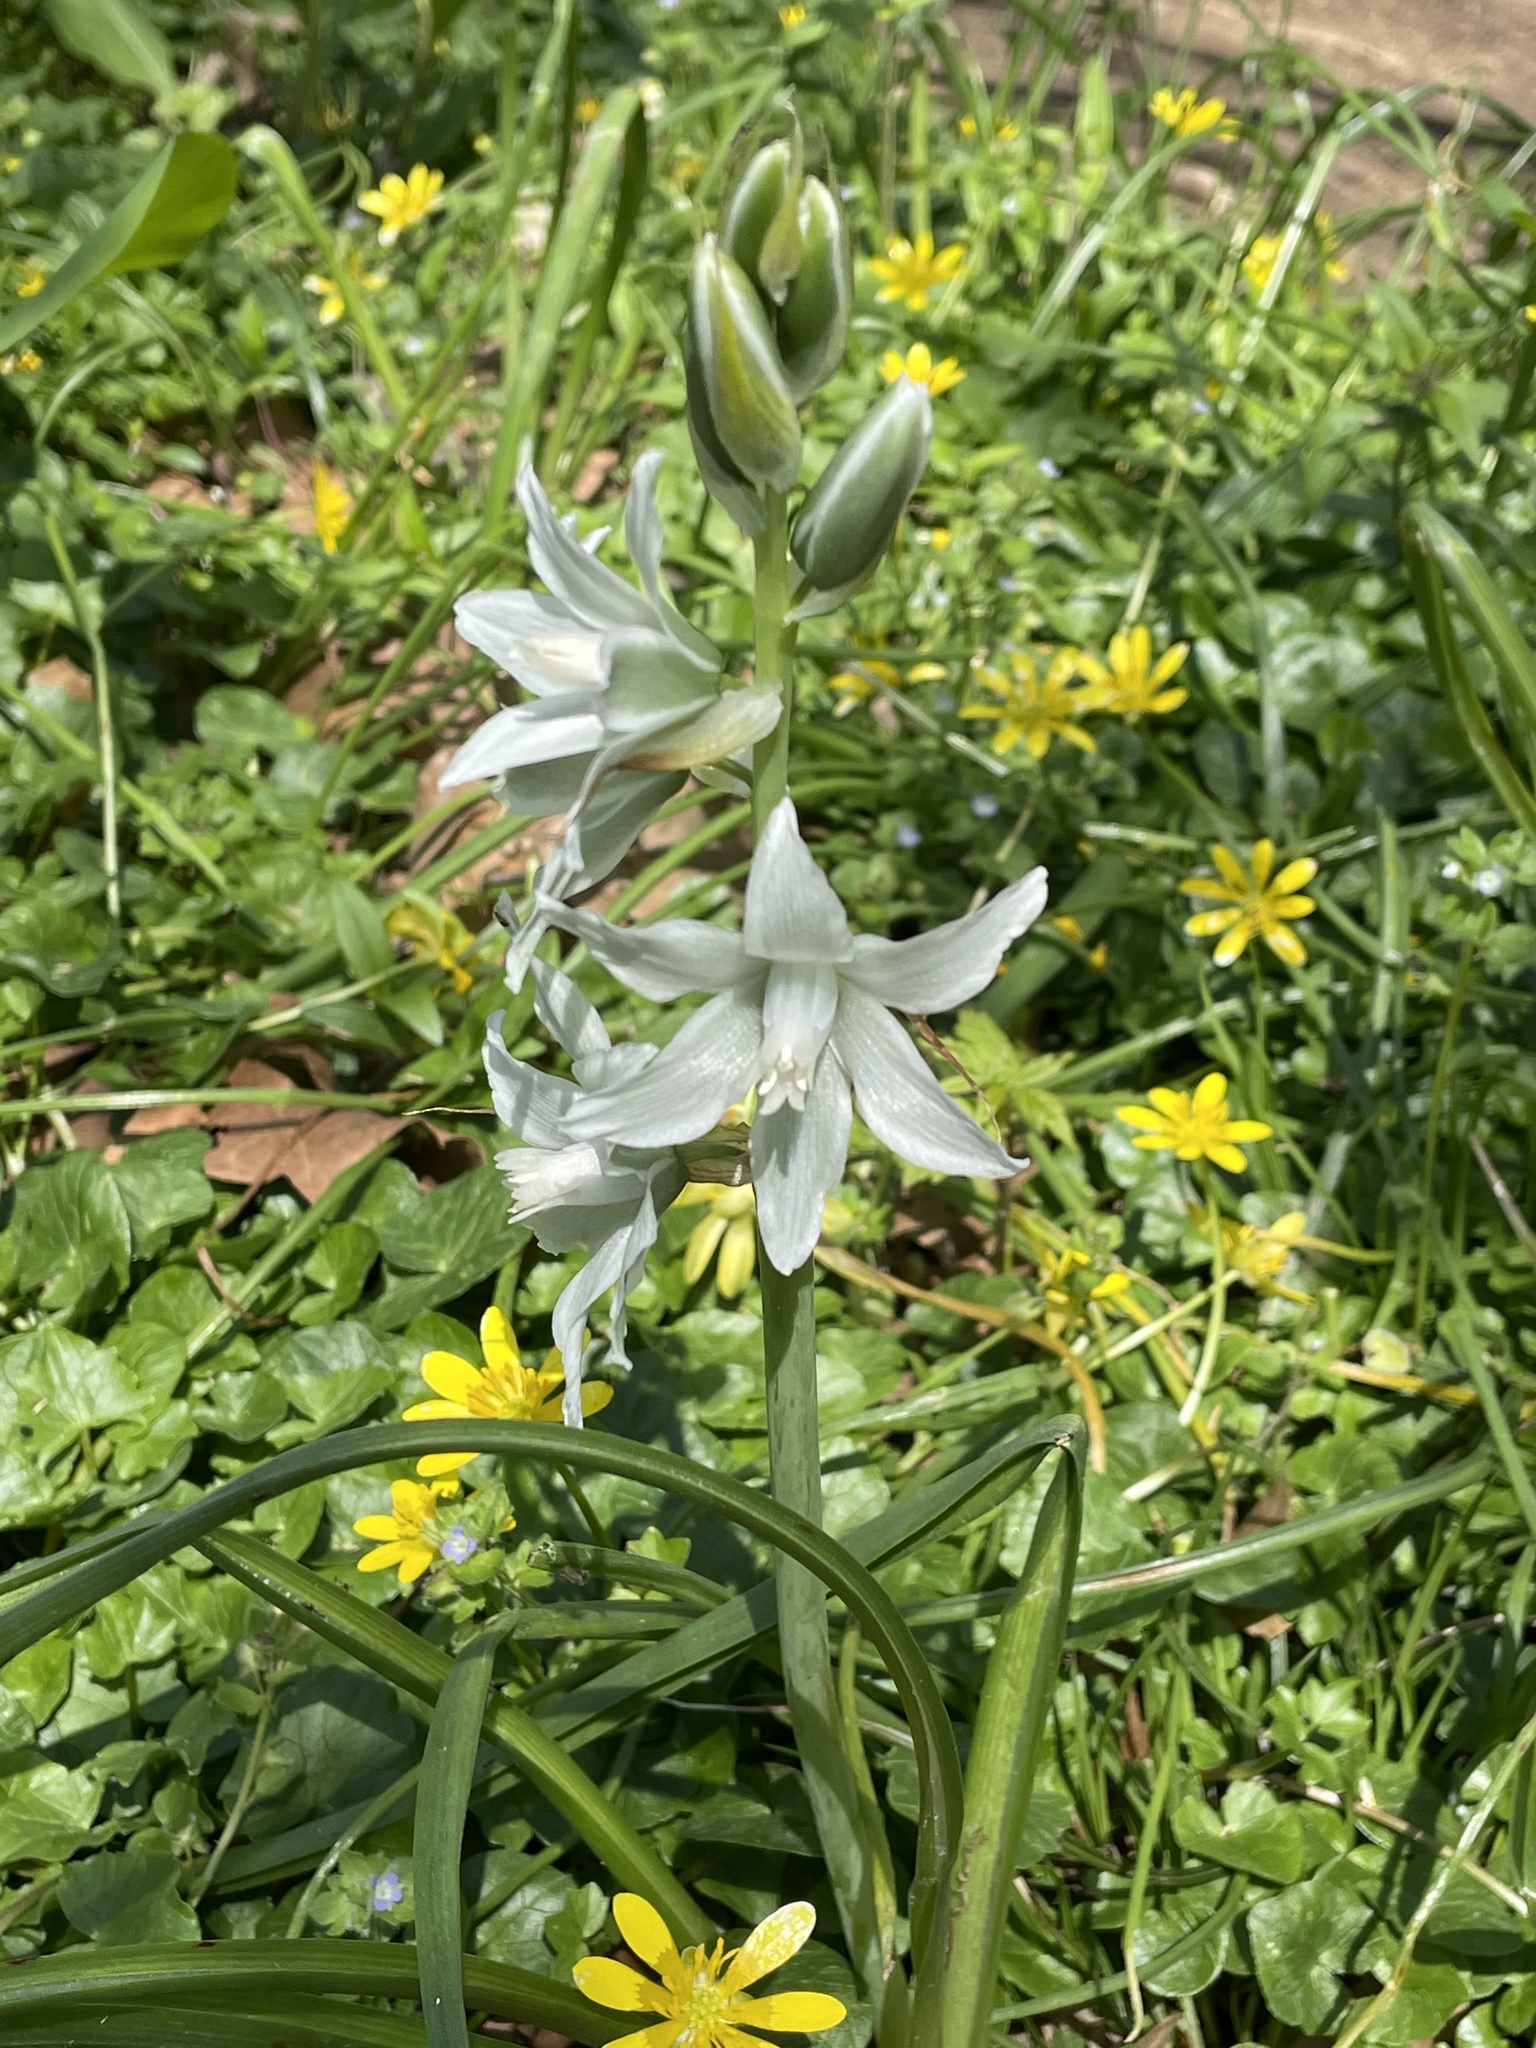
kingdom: Plantae
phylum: Tracheophyta
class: Liliopsida
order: Asparagales
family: Asparagaceae
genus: Ornithogalum
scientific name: Ornithogalum nutans
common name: Drooping star-of-bethlehem
